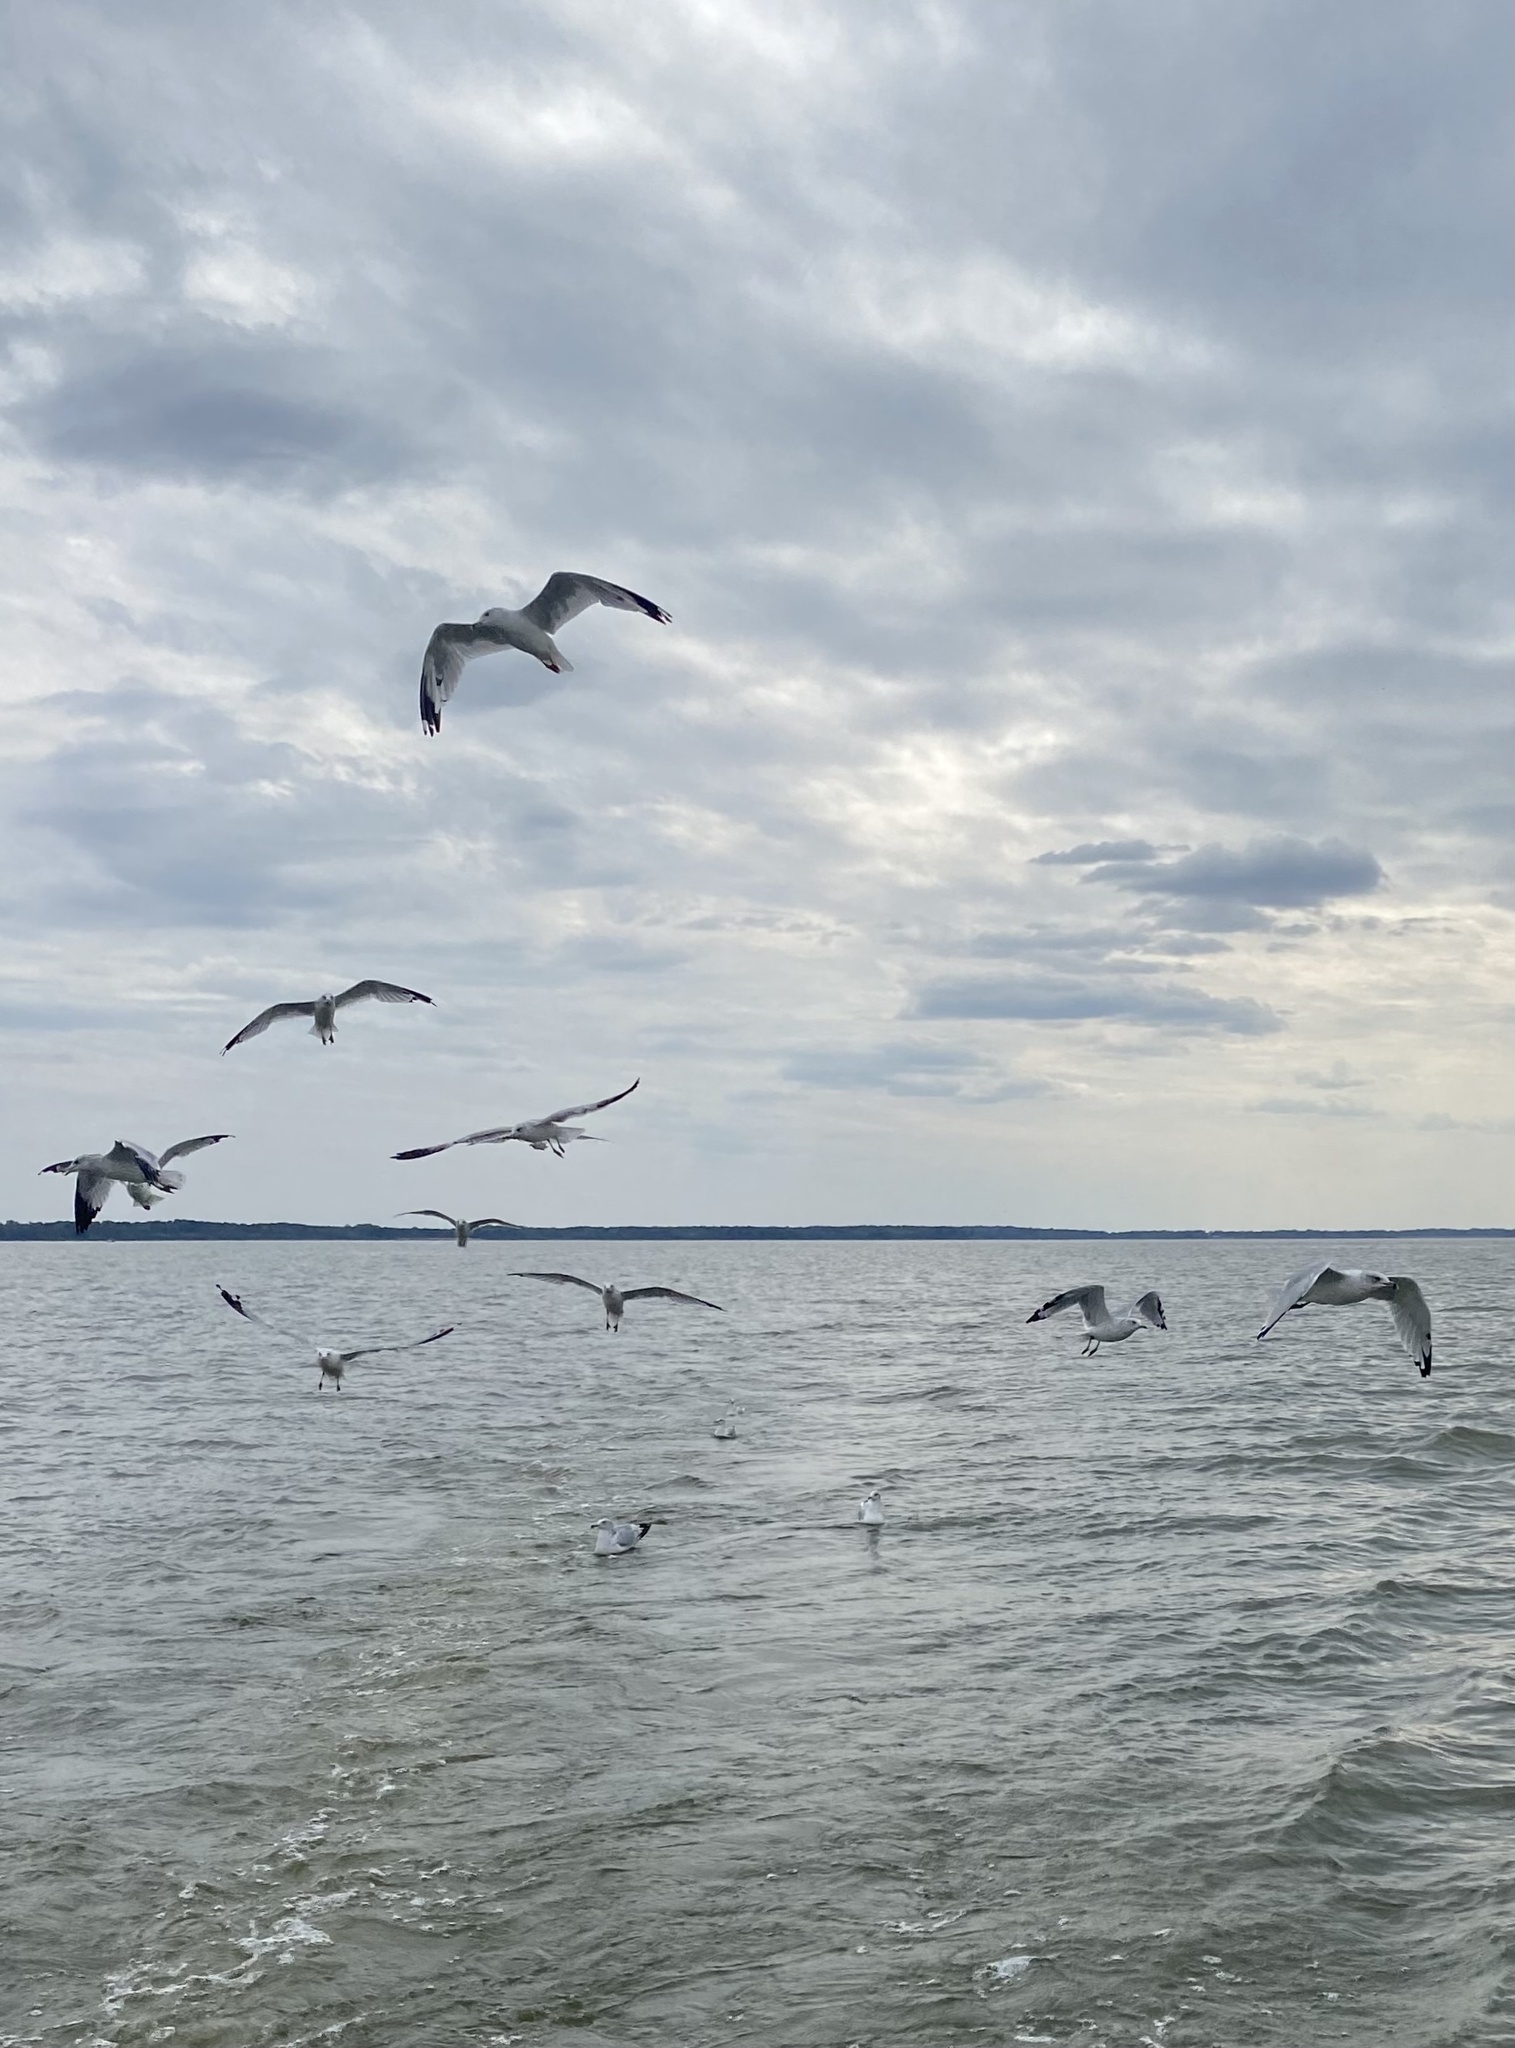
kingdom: Animalia
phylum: Chordata
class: Aves
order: Charadriiformes
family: Laridae
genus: Larus
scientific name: Larus delawarensis
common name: Ring-billed gull
